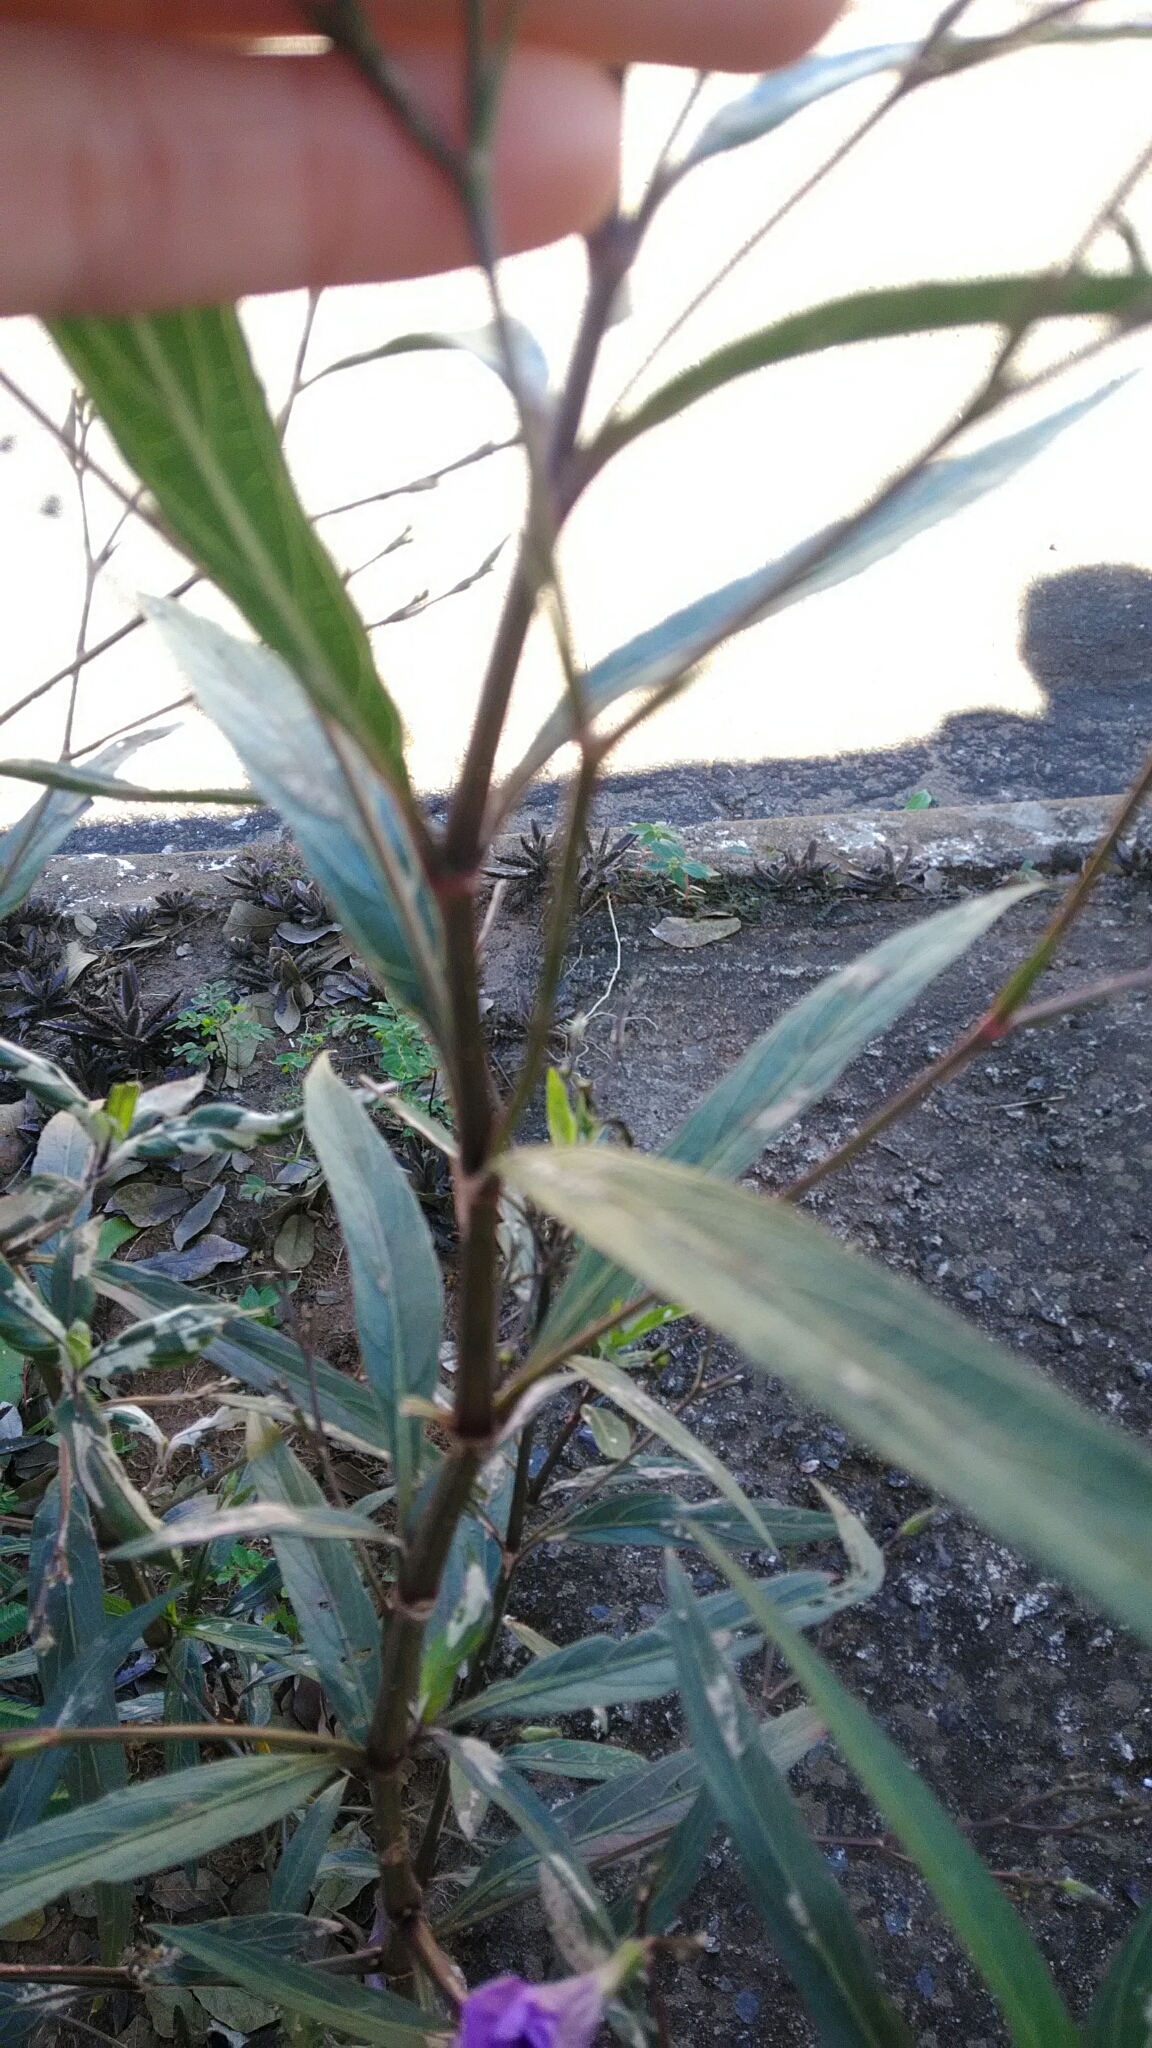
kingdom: Plantae
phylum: Tracheophyta
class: Magnoliopsida
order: Lamiales
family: Acanthaceae
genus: Ruellia
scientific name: Ruellia simplex
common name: Softseed wild petunia
